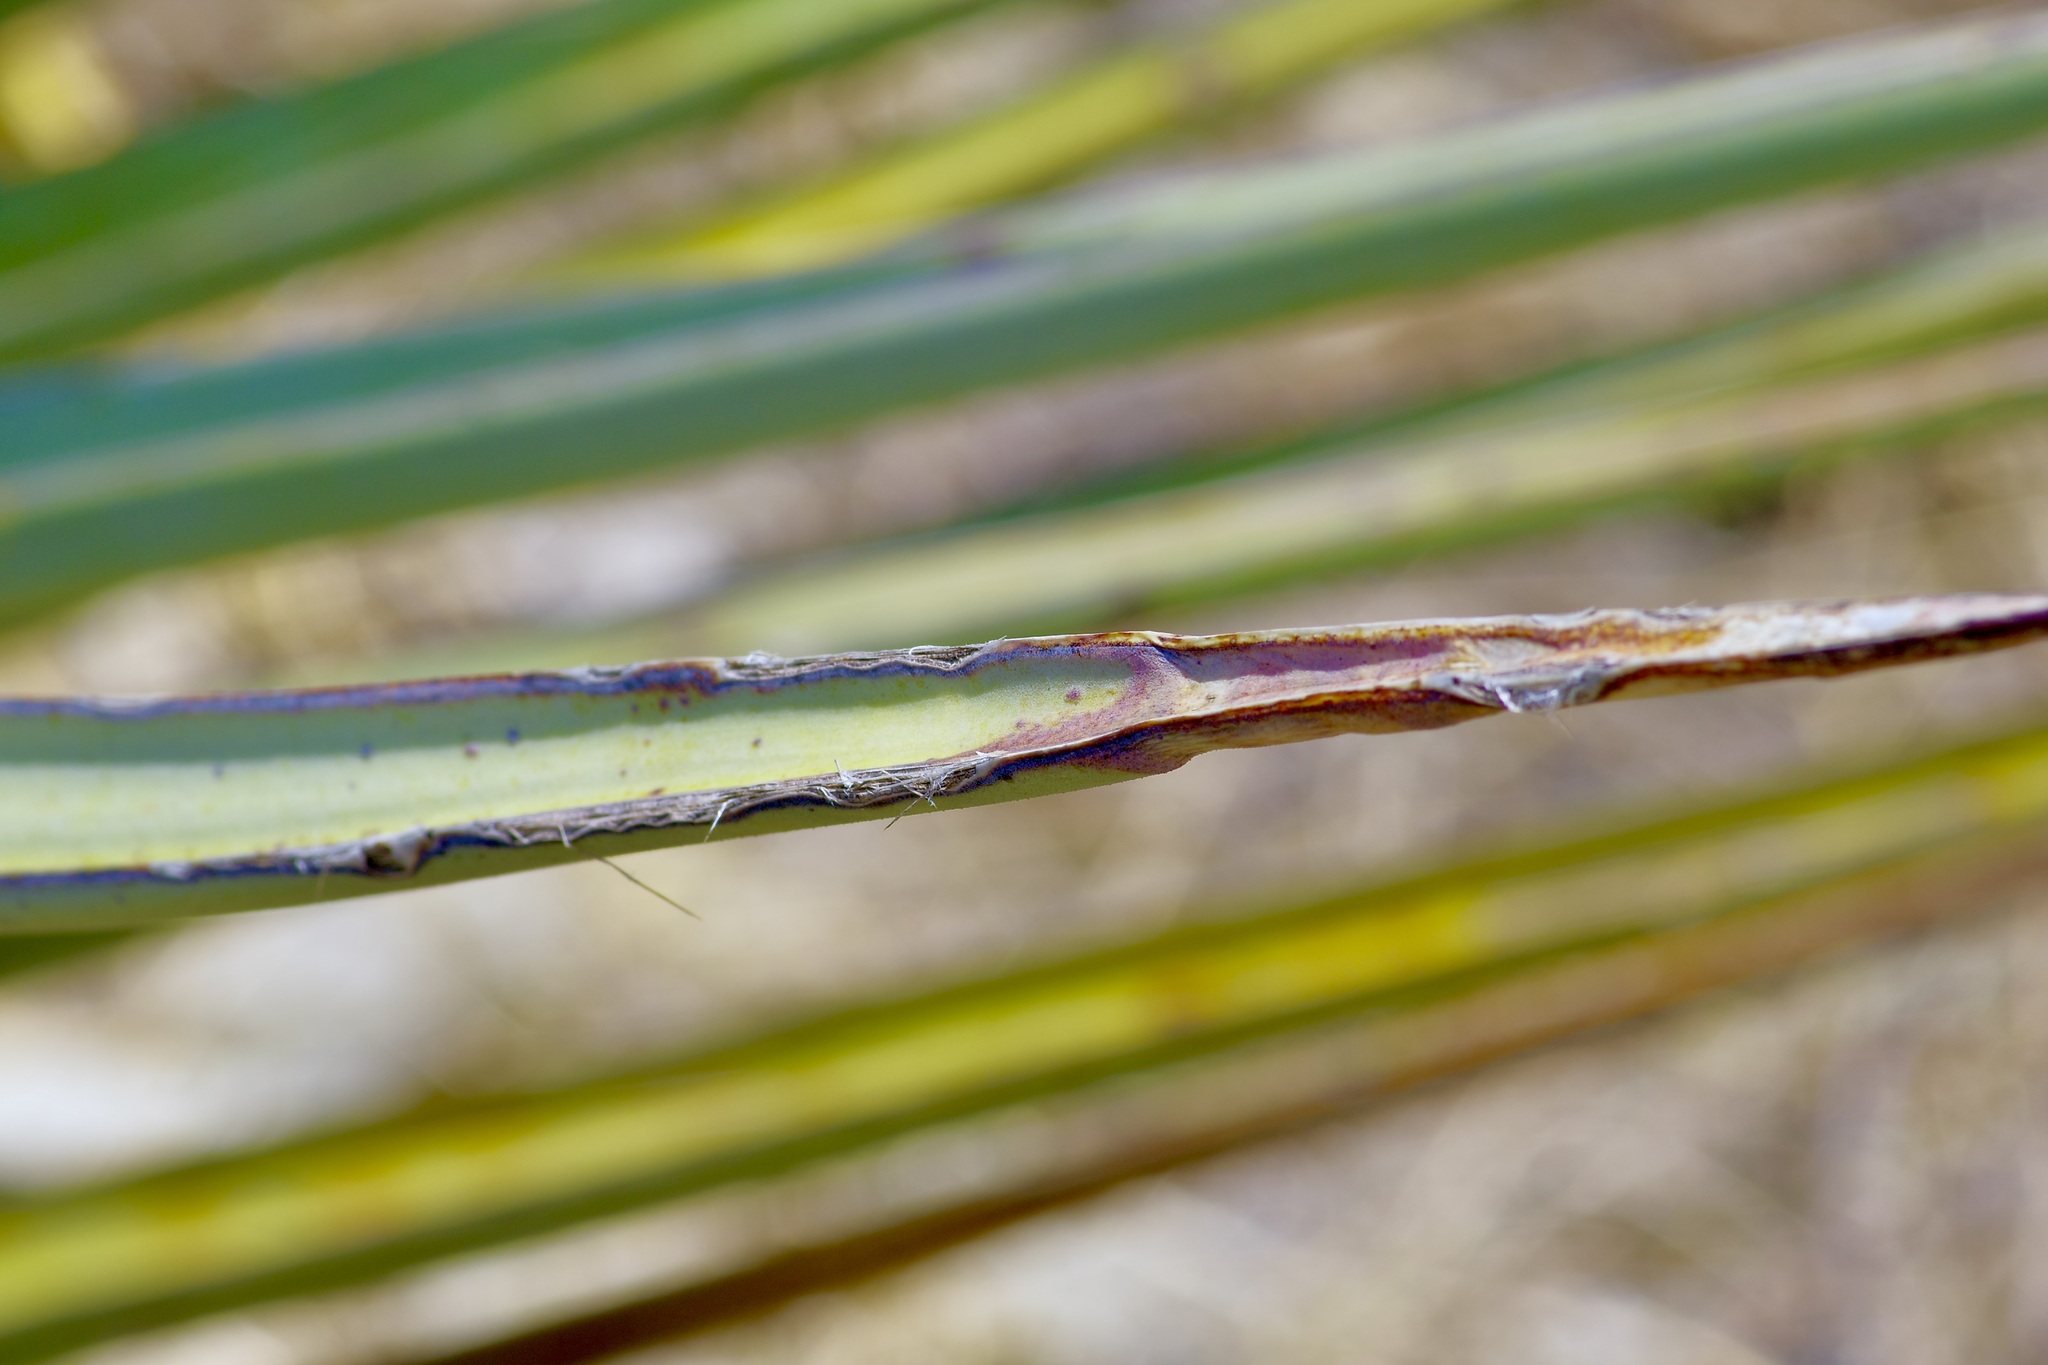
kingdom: Plantae
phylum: Tracheophyta
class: Liliopsida
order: Asparagales
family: Asparagaceae
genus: Yucca
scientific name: Yucca treculiana
